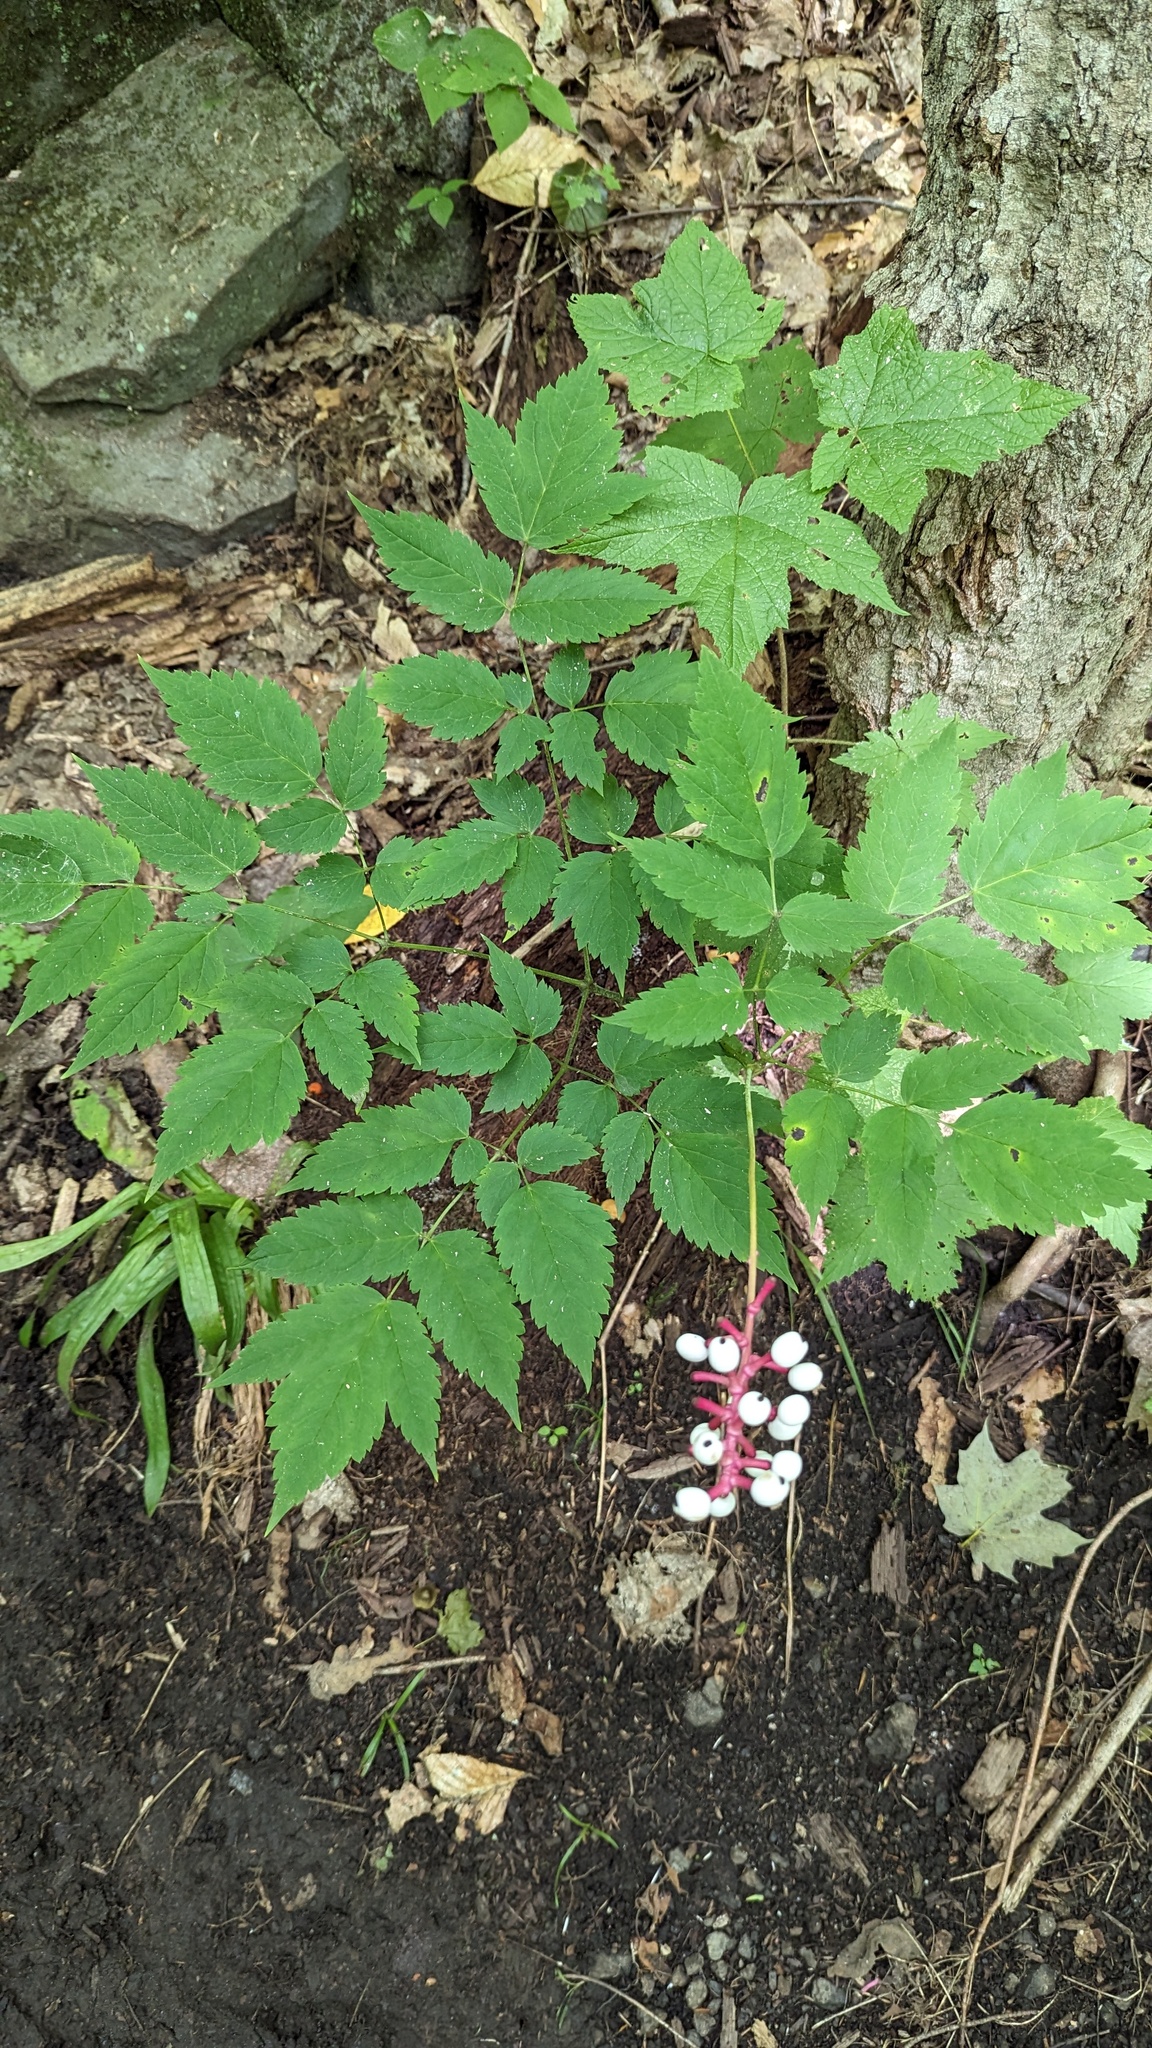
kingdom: Plantae
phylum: Tracheophyta
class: Magnoliopsida
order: Ranunculales
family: Ranunculaceae
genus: Actaea
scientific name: Actaea pachypoda
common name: Doll's-eyes
